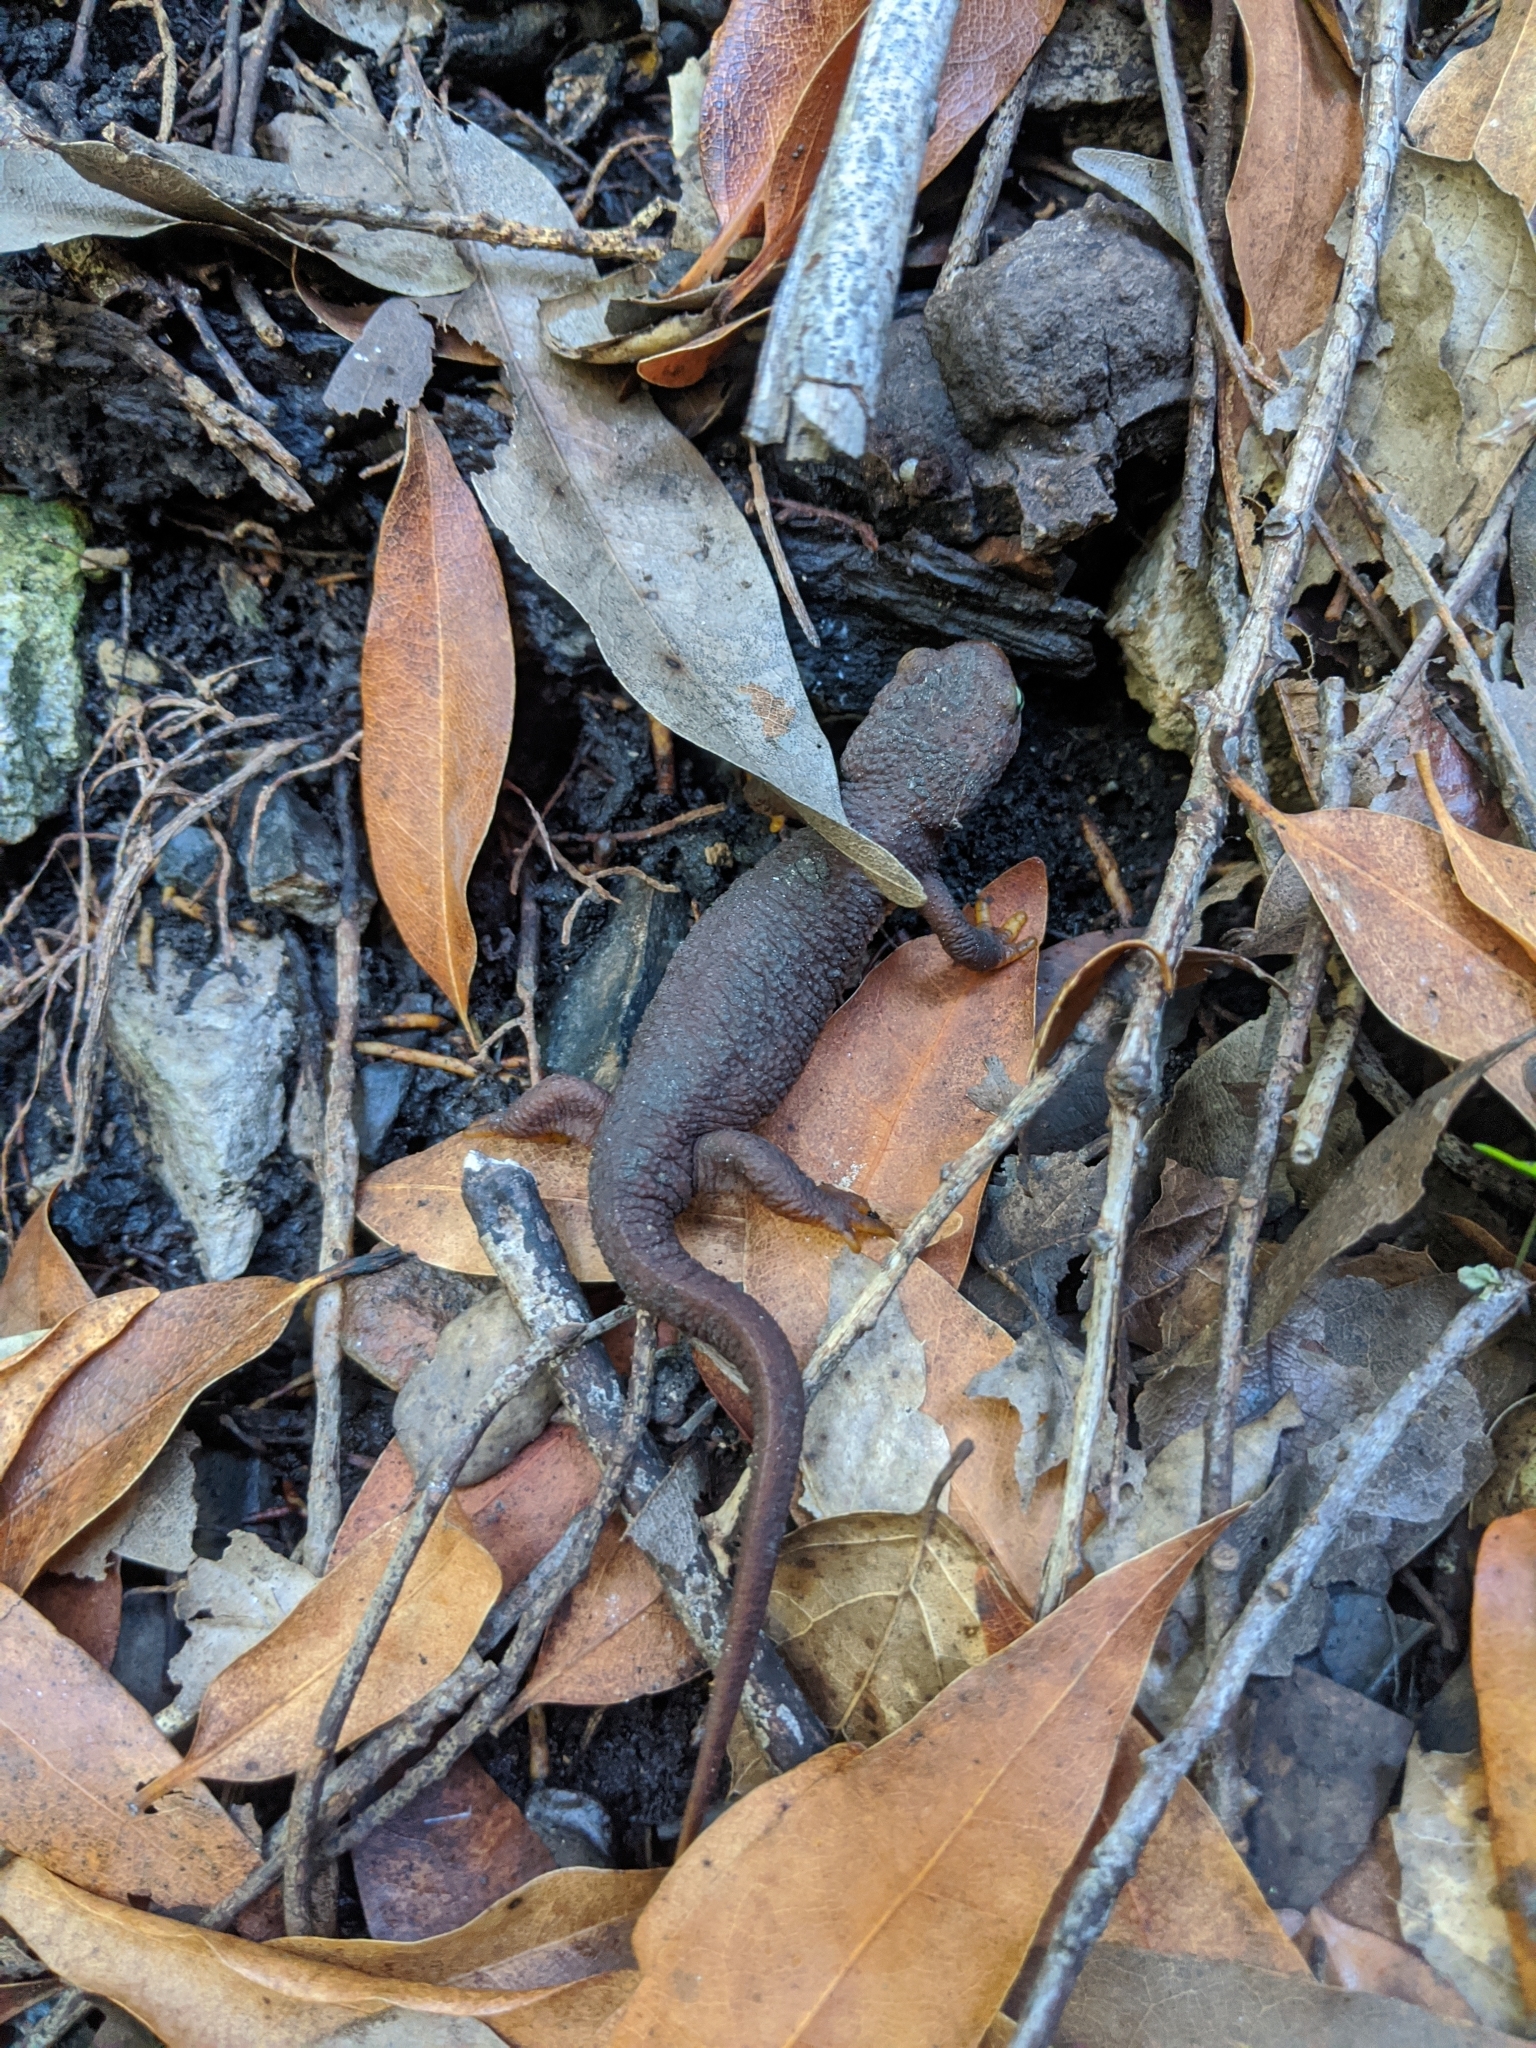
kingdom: Animalia
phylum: Chordata
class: Amphibia
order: Caudata
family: Salamandridae
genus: Taricha
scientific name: Taricha torosa
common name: California newt
